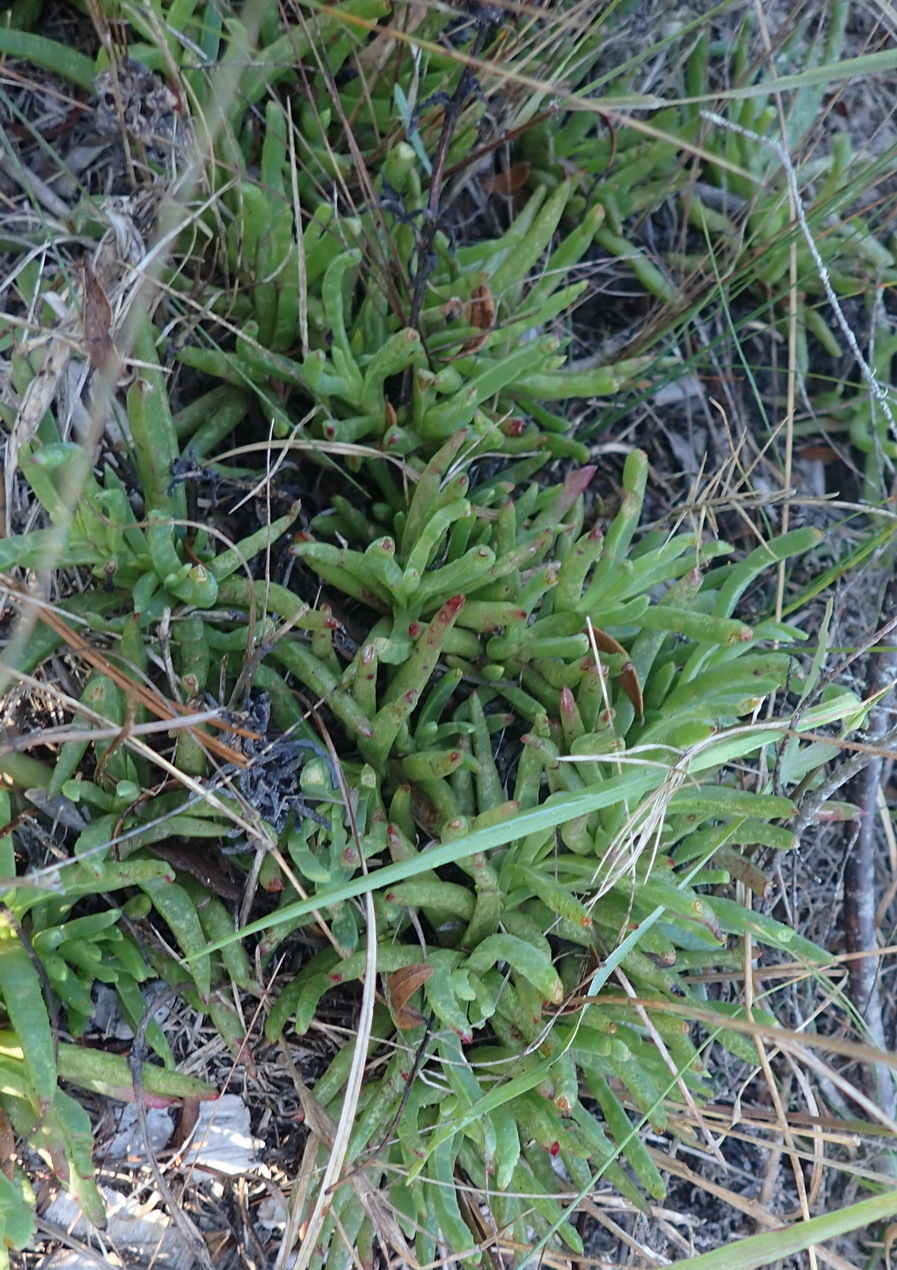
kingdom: Plantae
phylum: Tracheophyta
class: Magnoliopsida
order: Caryophyllales
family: Aizoaceae
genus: Ruschia
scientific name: Ruschia duthiae
